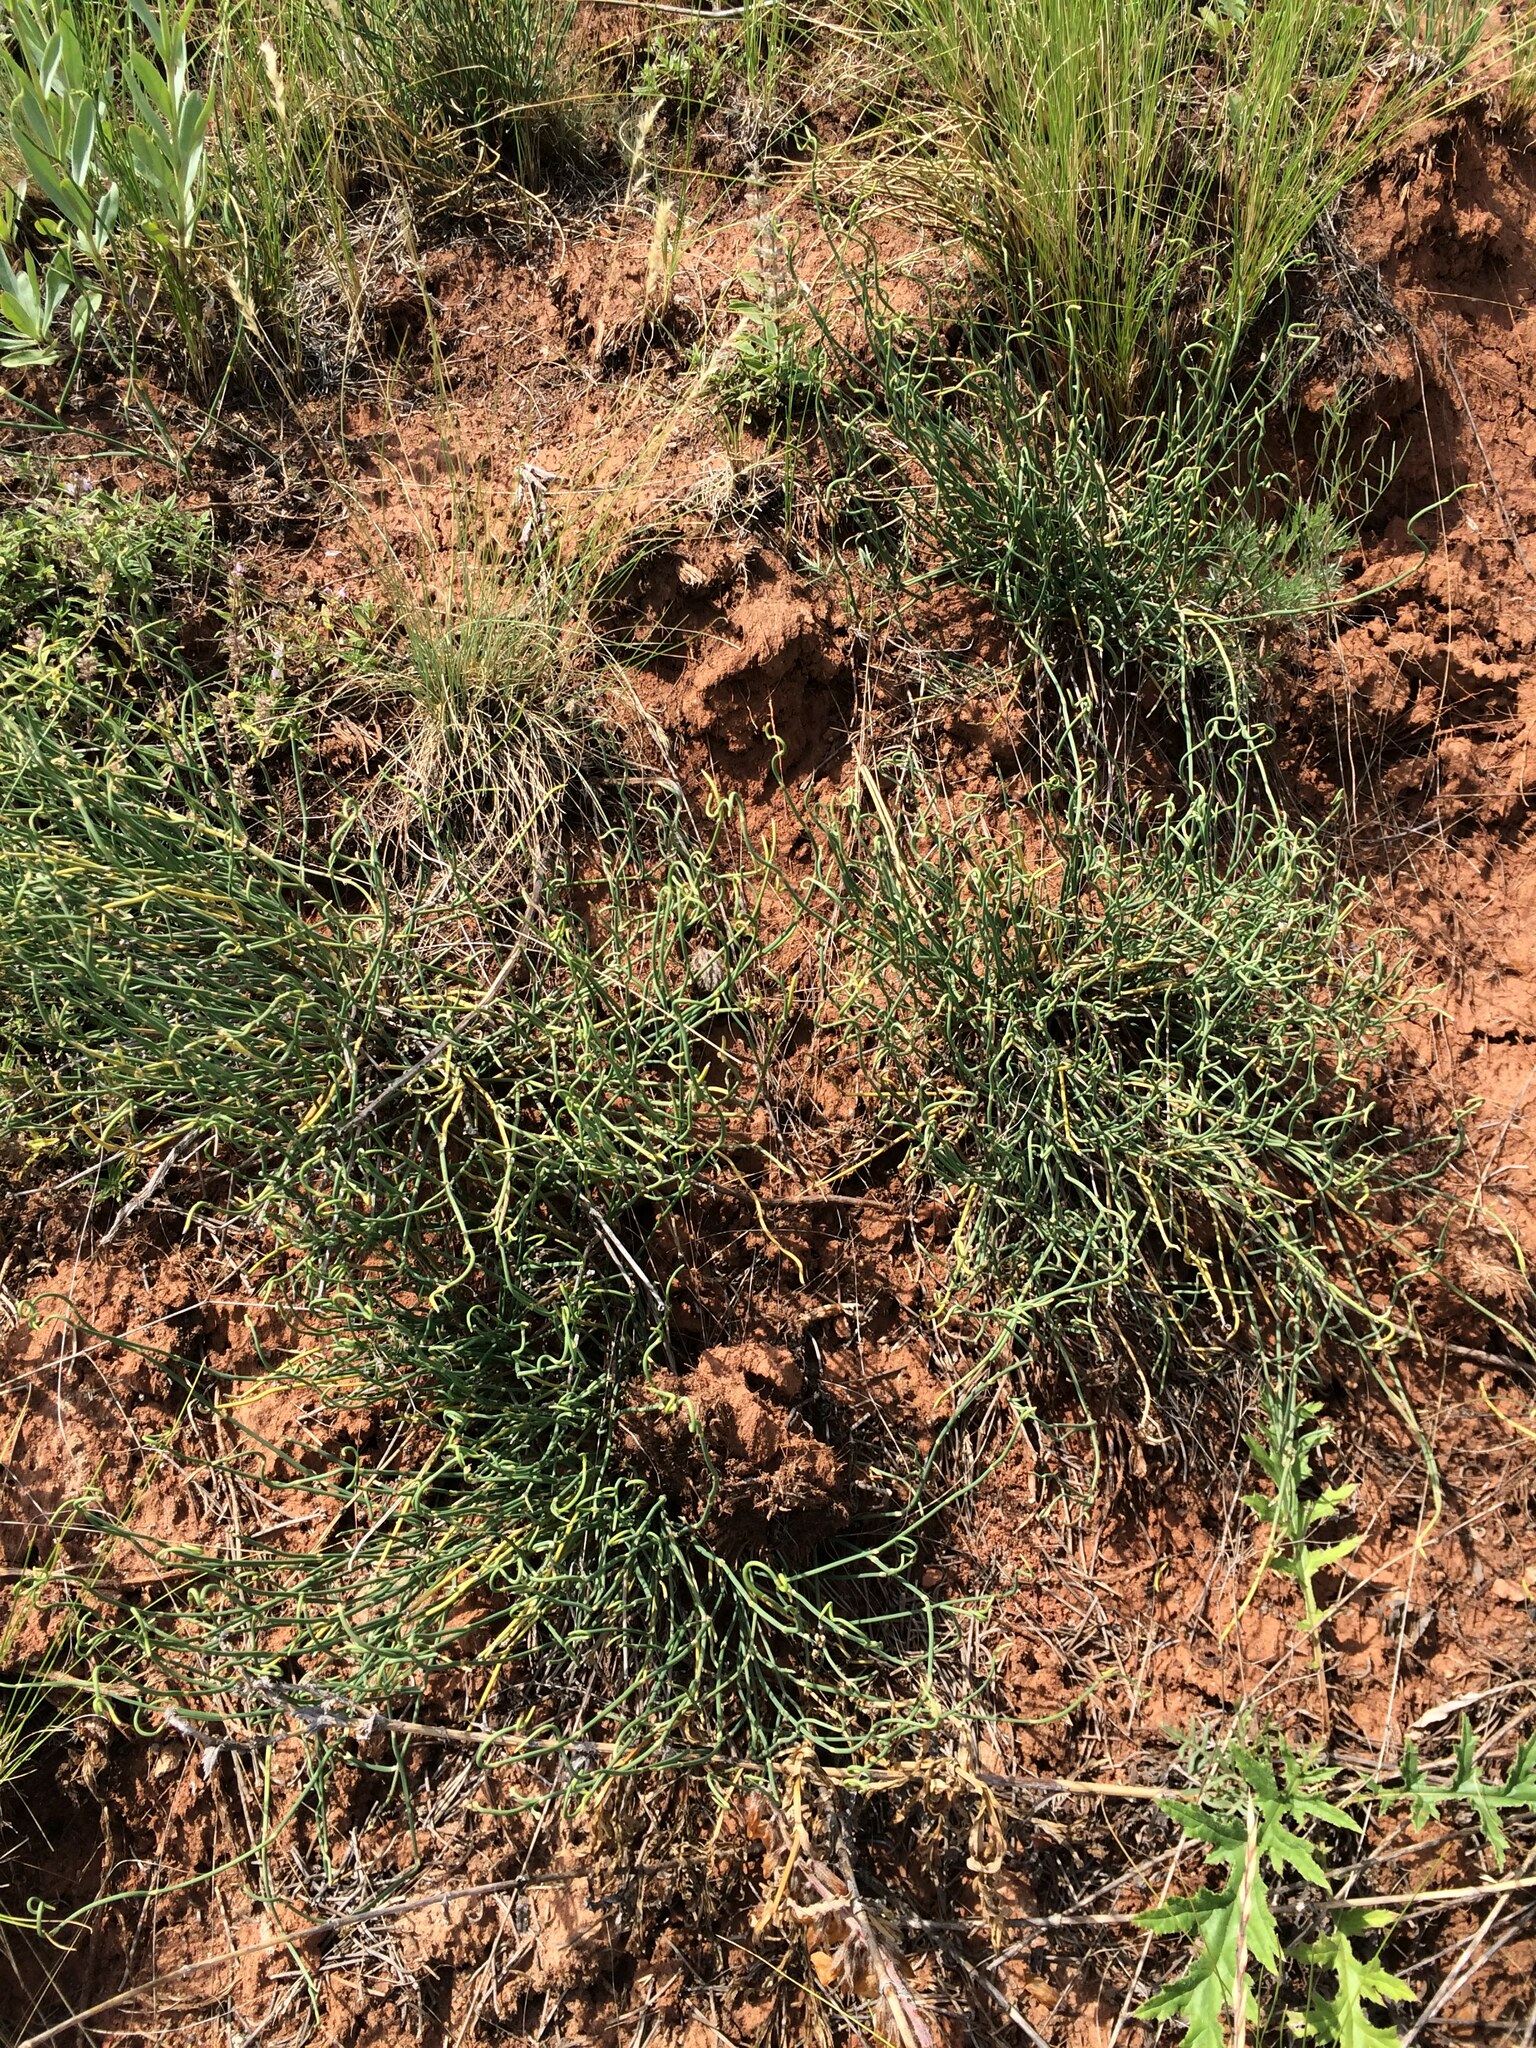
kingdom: Plantae
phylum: Tracheophyta
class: Gnetopsida
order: Ephedrales
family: Ephedraceae
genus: Ephedra
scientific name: Ephedra distachya
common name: Sea grape
